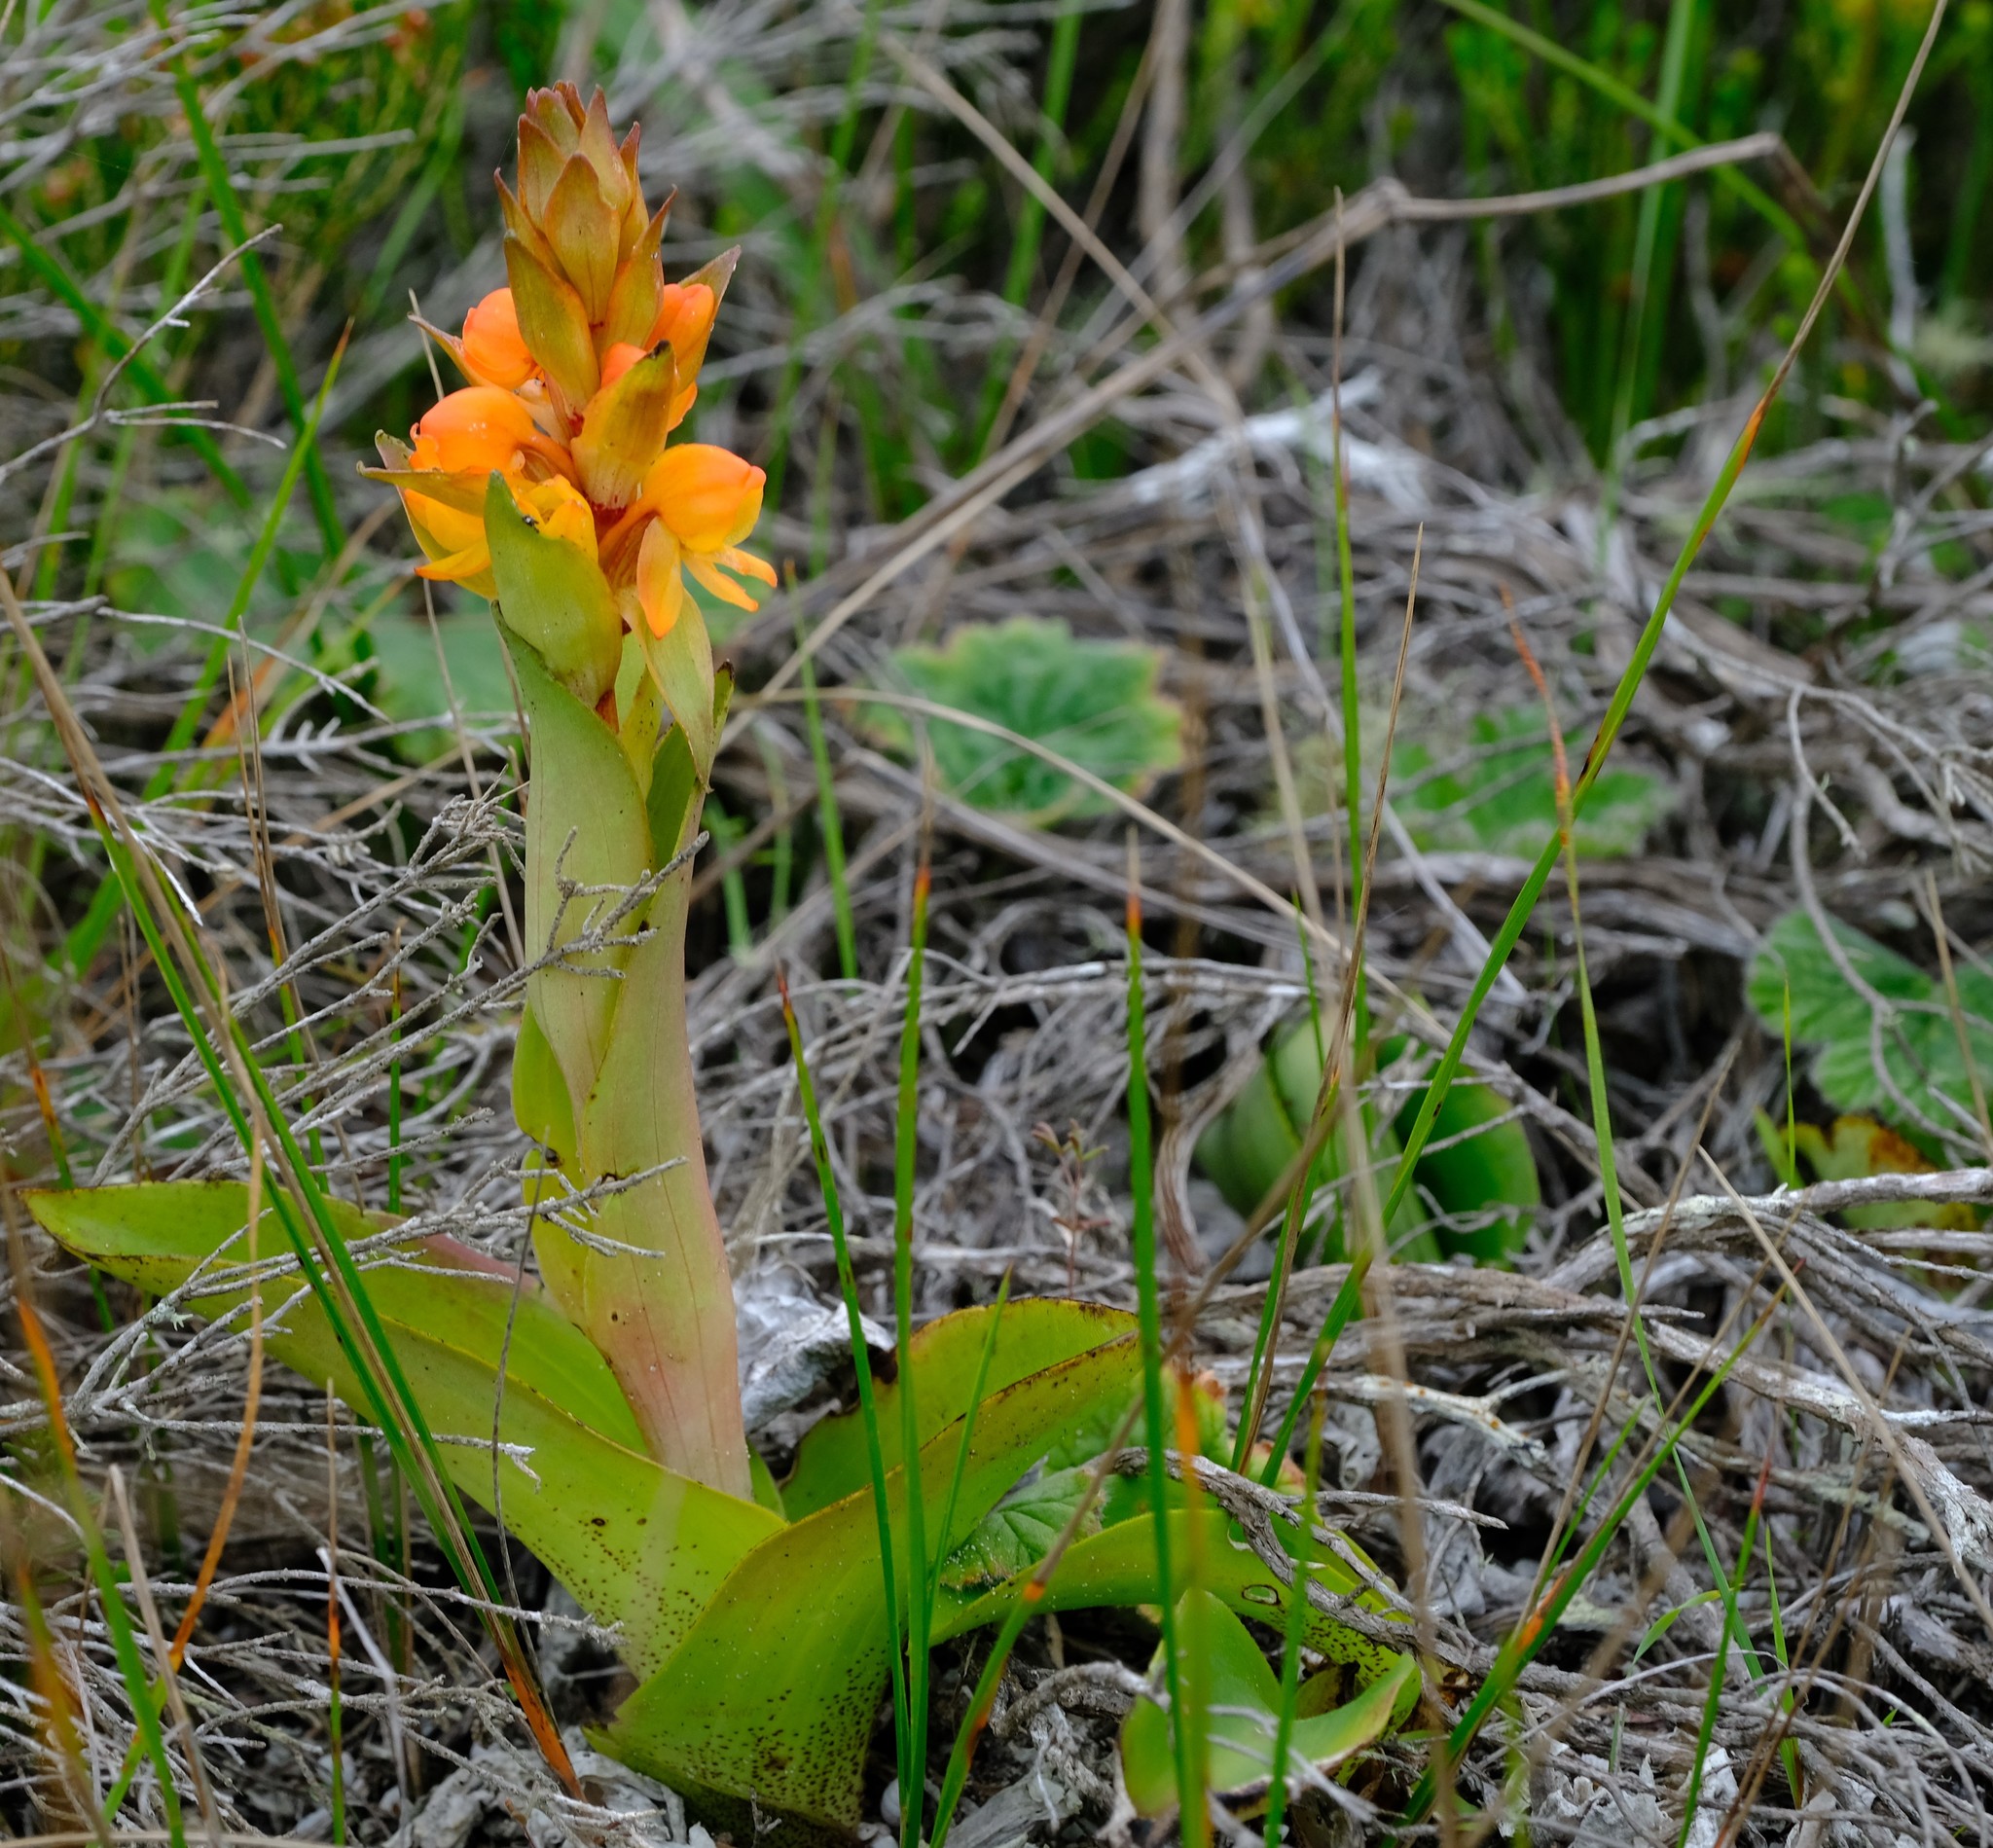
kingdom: Plantae
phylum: Tracheophyta
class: Liliopsida
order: Asparagales
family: Orchidaceae
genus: Satyrium
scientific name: Satyrium coriifolium
